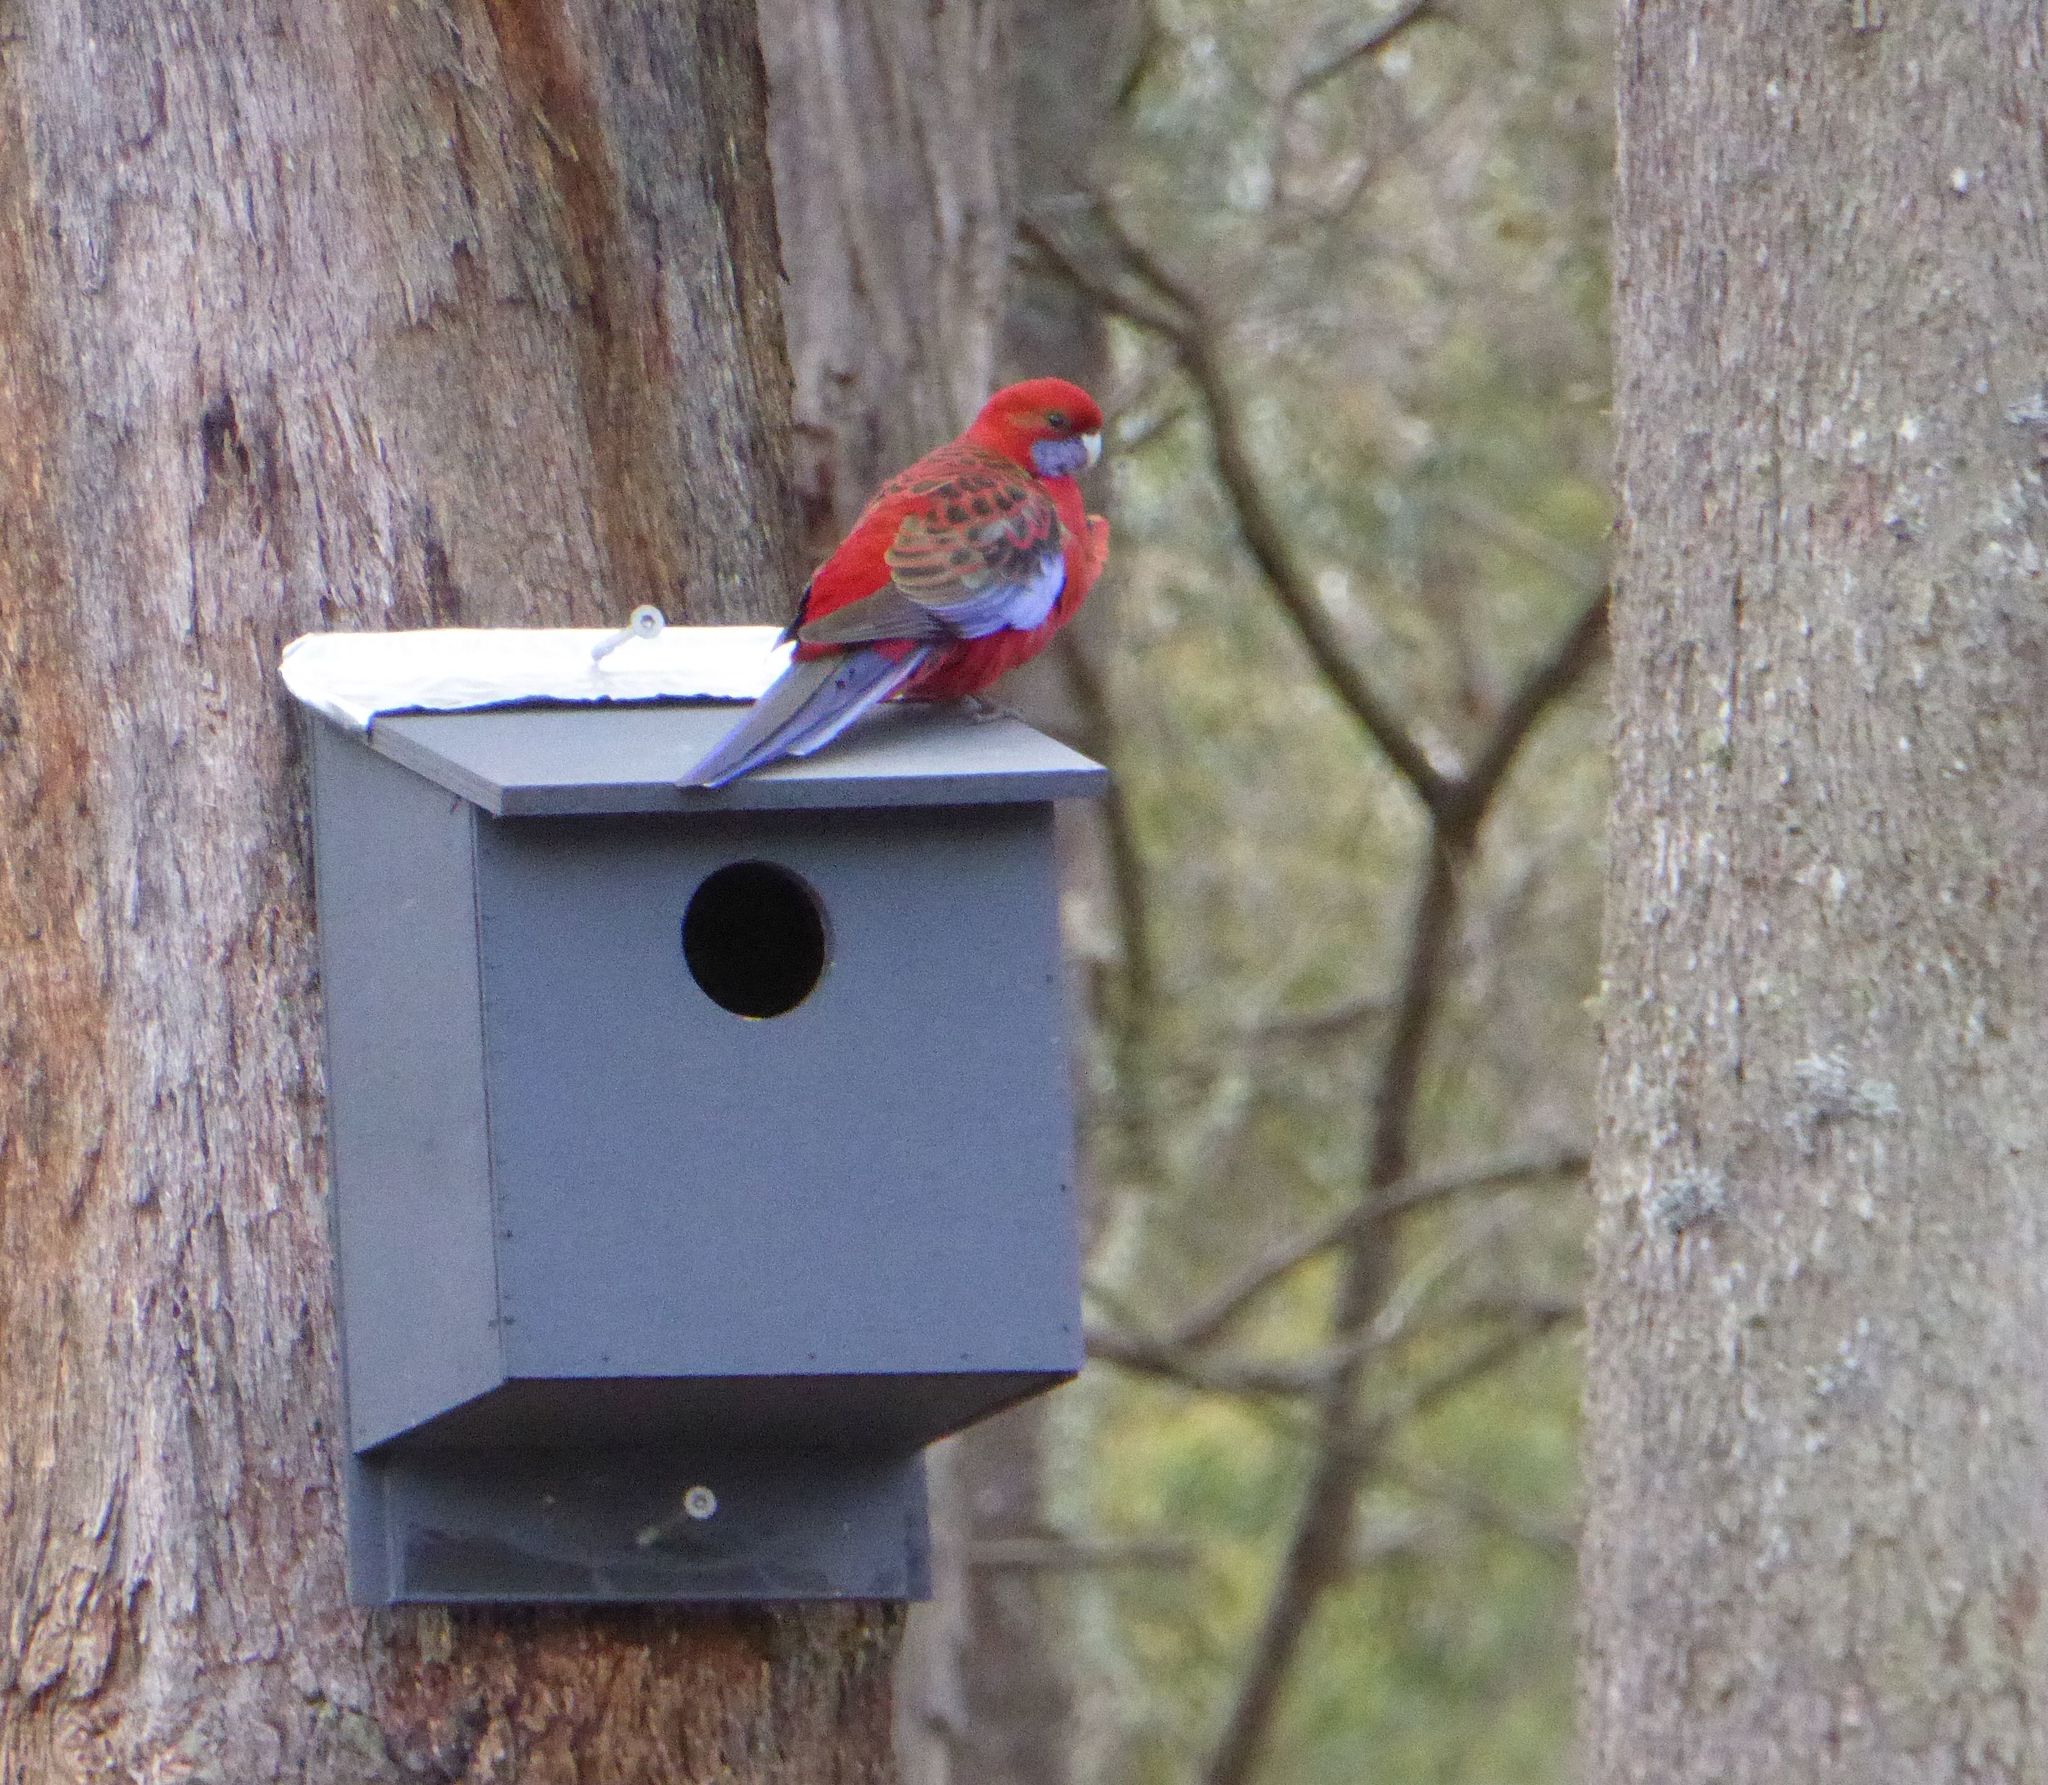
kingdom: Animalia
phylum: Chordata
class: Aves
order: Psittaciformes
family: Psittacidae
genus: Platycercus
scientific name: Platycercus elegans
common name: Crimson rosella
